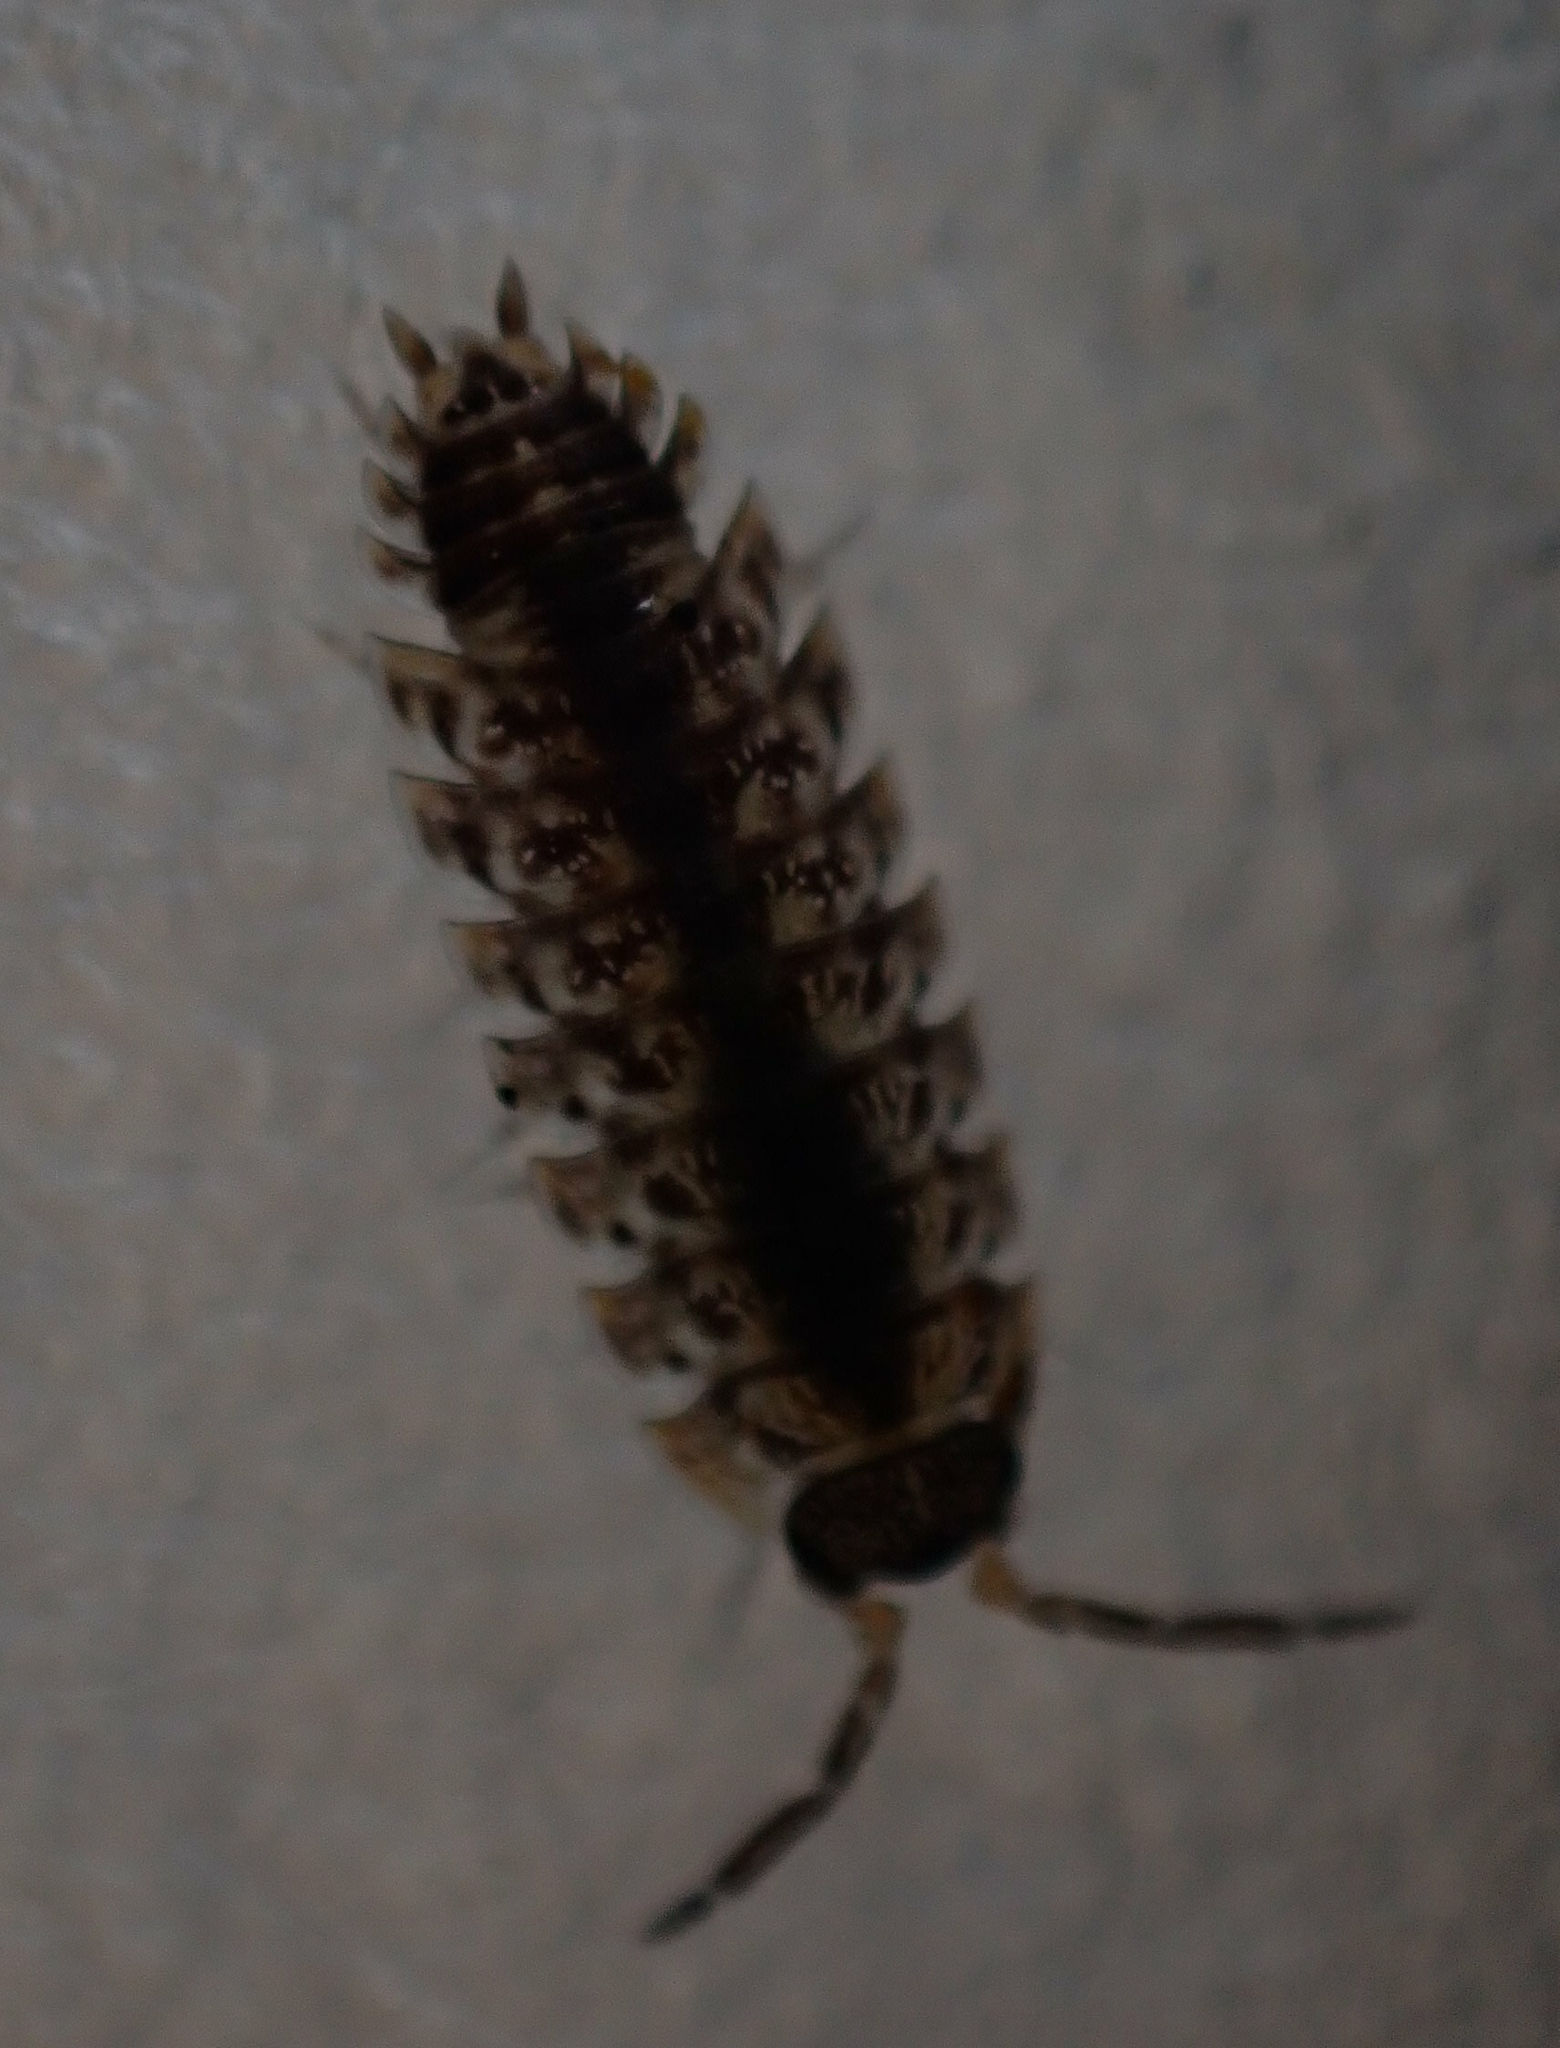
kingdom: Animalia
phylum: Arthropoda
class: Malacostraca
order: Isopoda
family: Porcellionidae
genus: Porcellio
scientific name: Porcellio spinicornis
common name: Painted woodlouse
